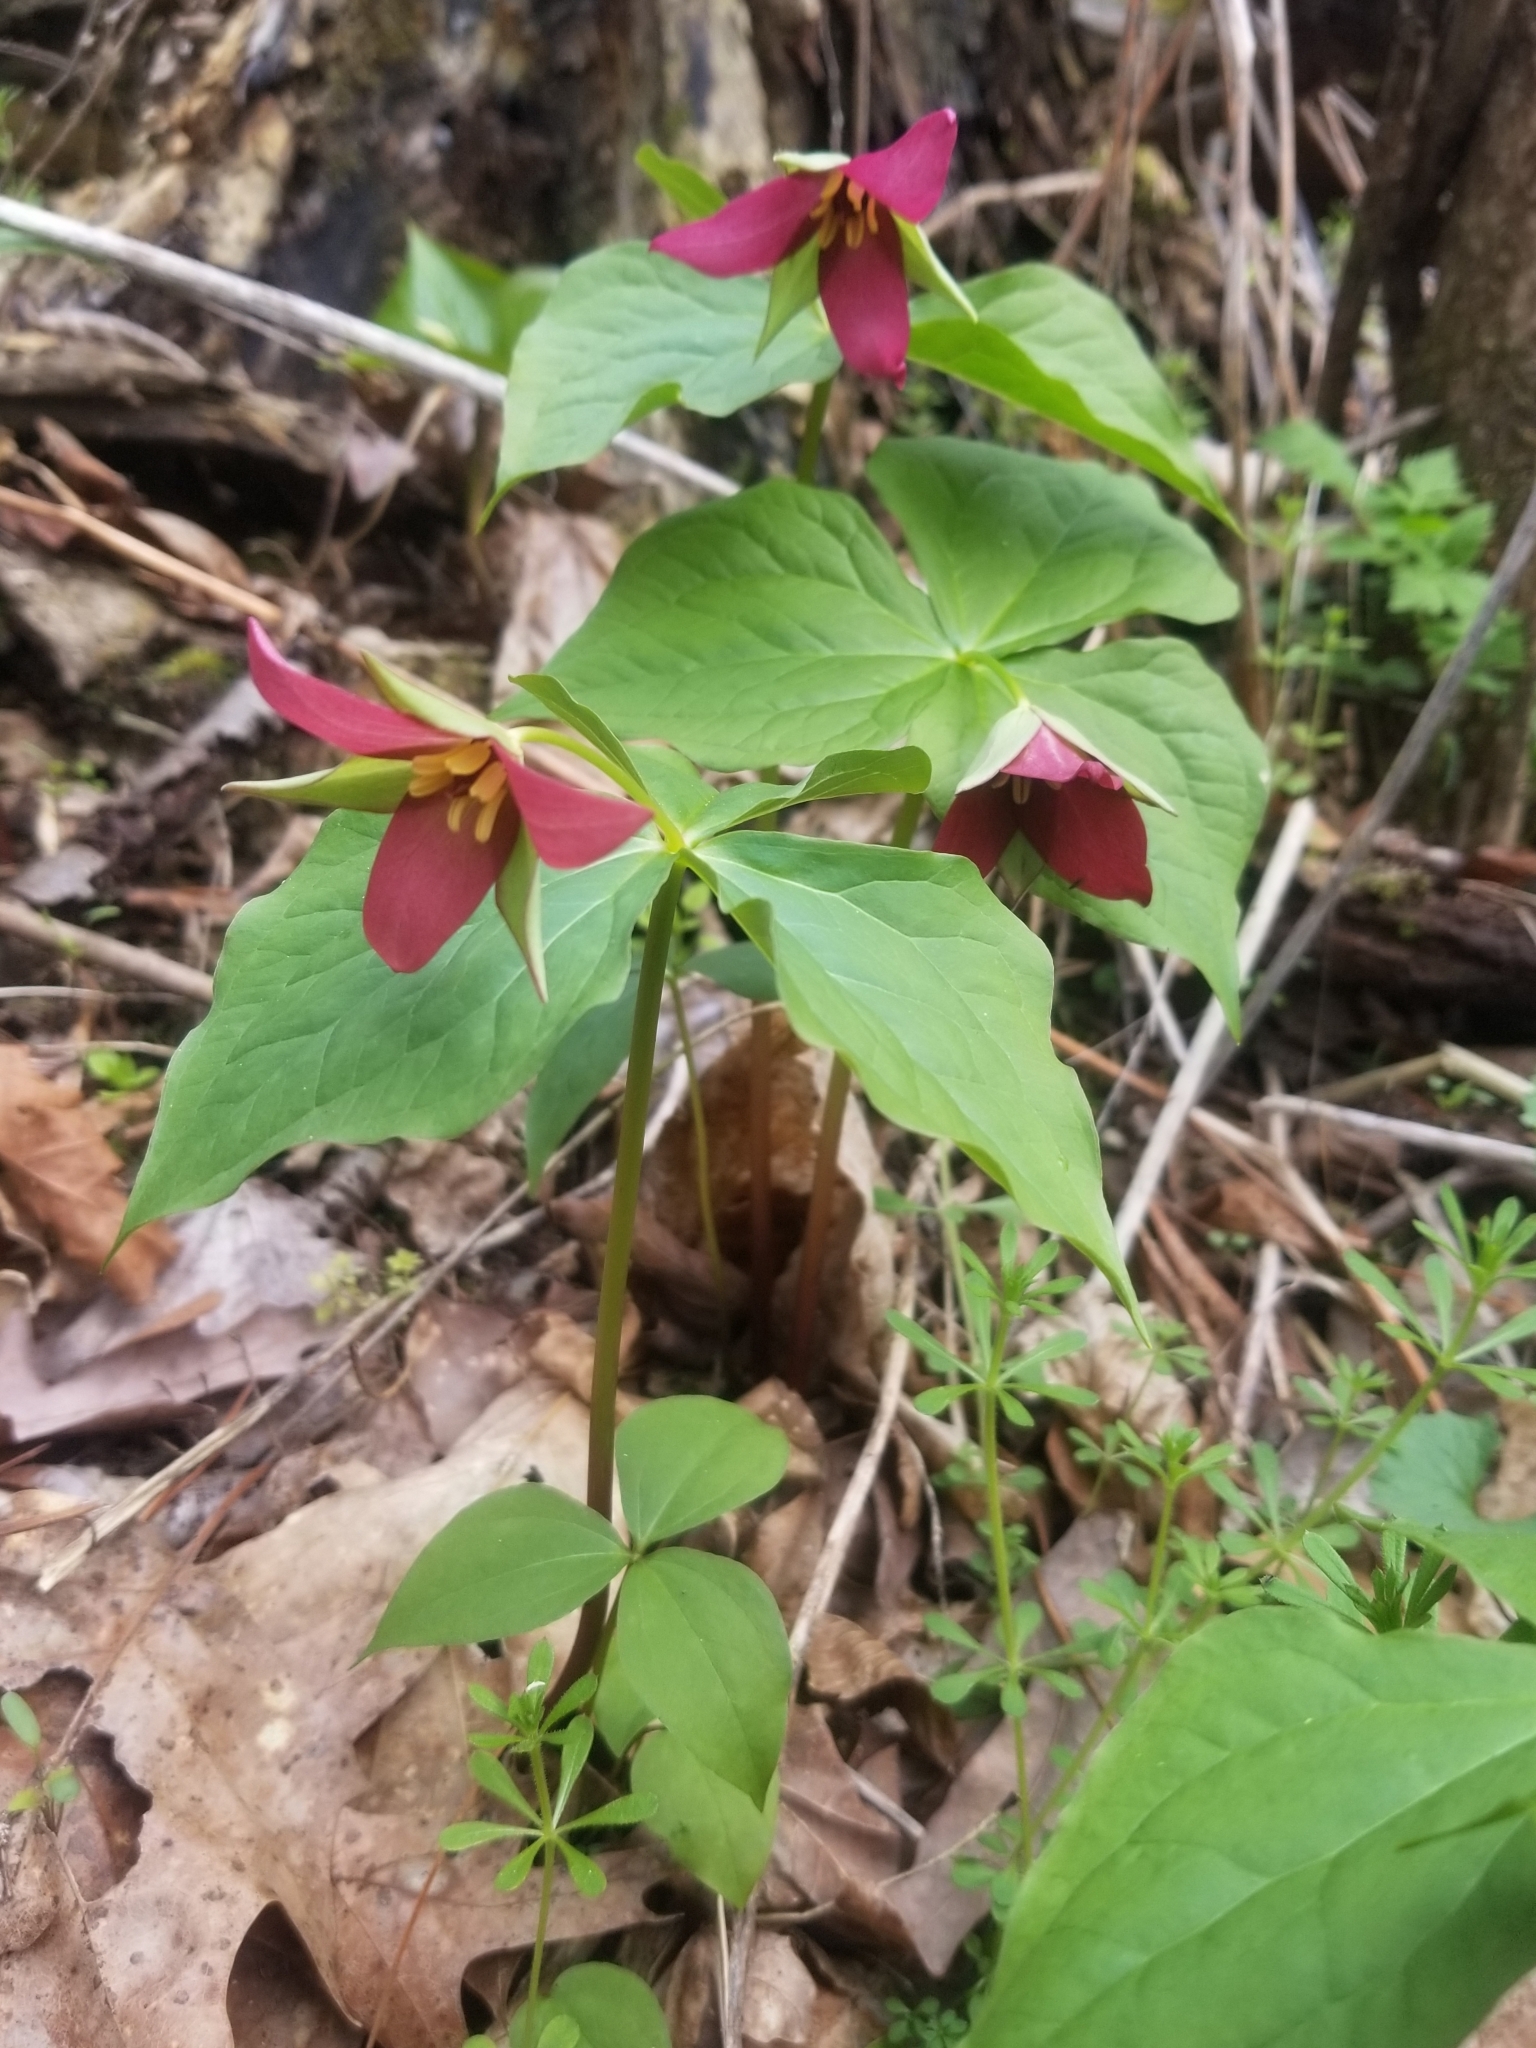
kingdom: Plantae
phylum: Tracheophyta
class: Liliopsida
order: Liliales
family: Melanthiaceae
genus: Trillium
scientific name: Trillium erectum
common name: Purple trillium
